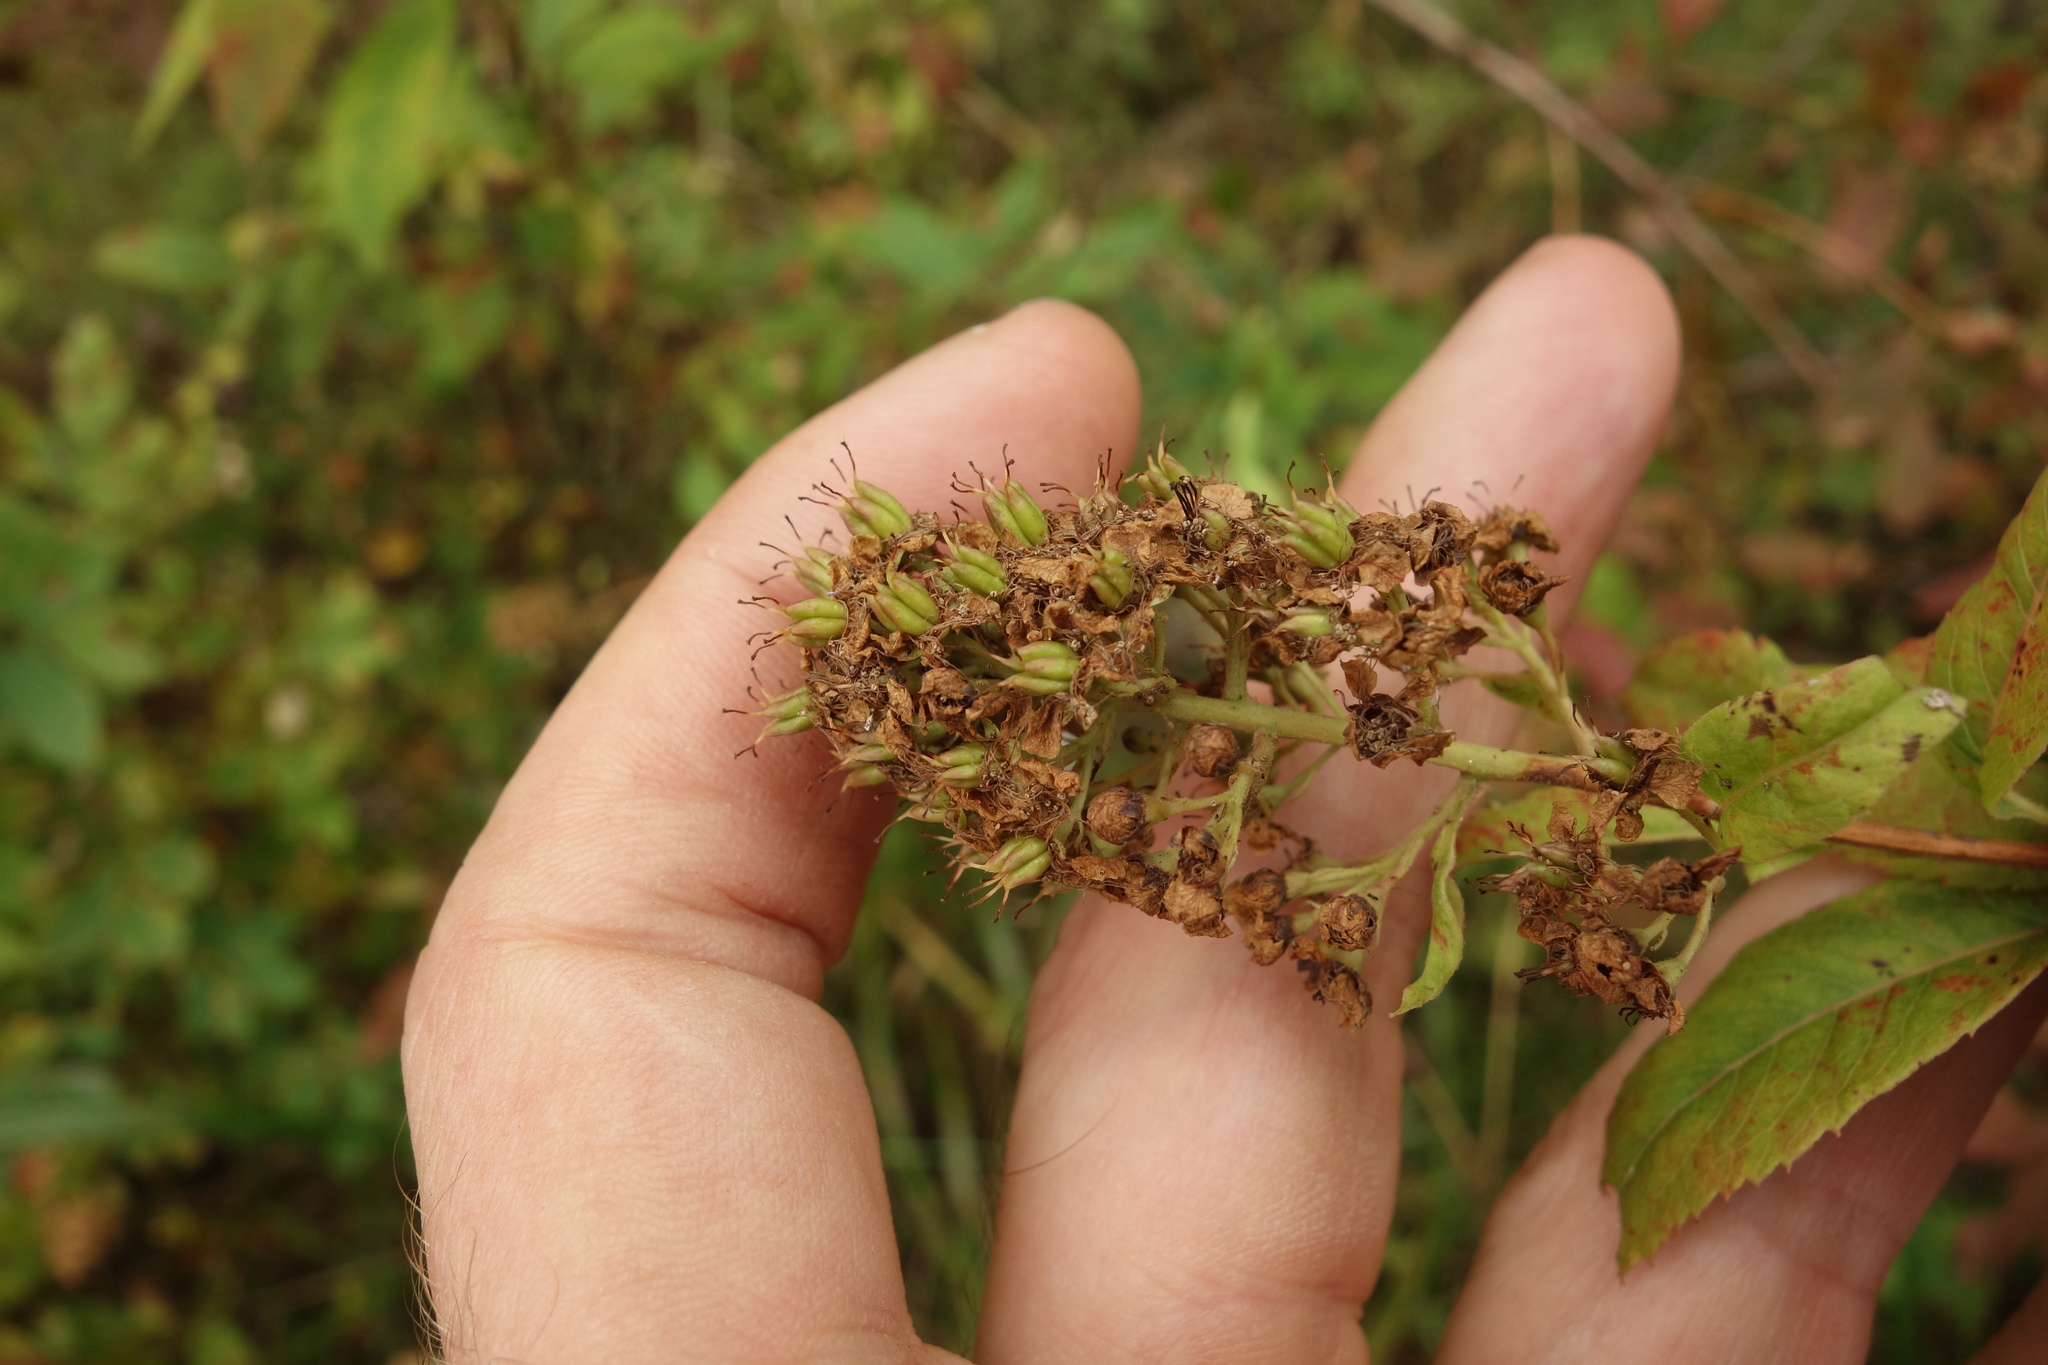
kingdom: Plantae
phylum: Tracheophyta
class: Magnoliopsida
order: Rosales
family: Rosaceae
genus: Spiraea
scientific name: Spiraea salicifolia
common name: Bridewort
